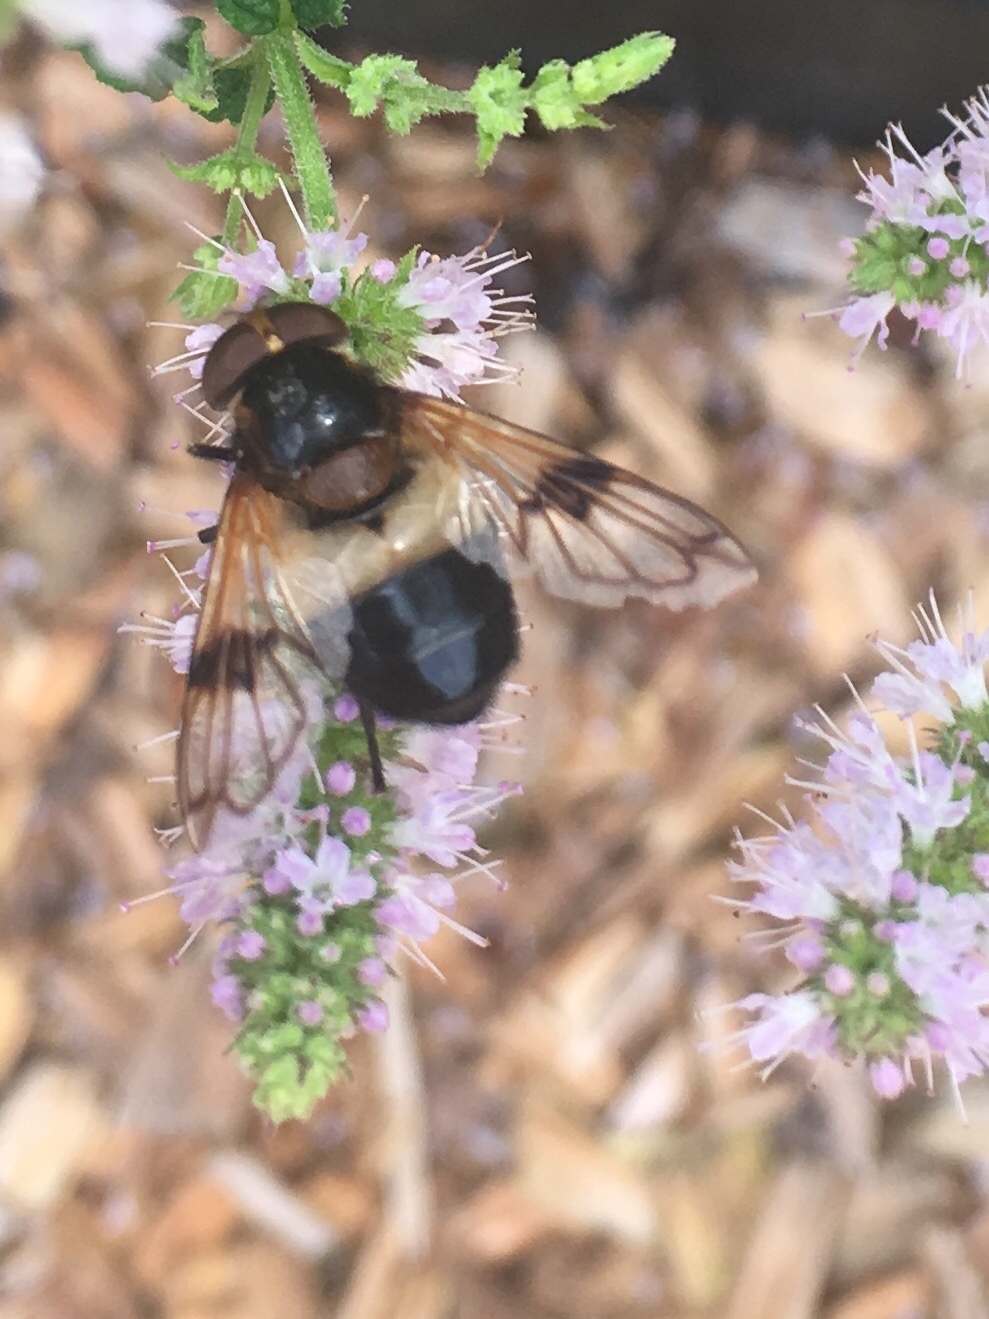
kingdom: Animalia
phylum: Arthropoda
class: Insecta
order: Diptera
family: Syrphidae
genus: Volucella
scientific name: Volucella pellucens
